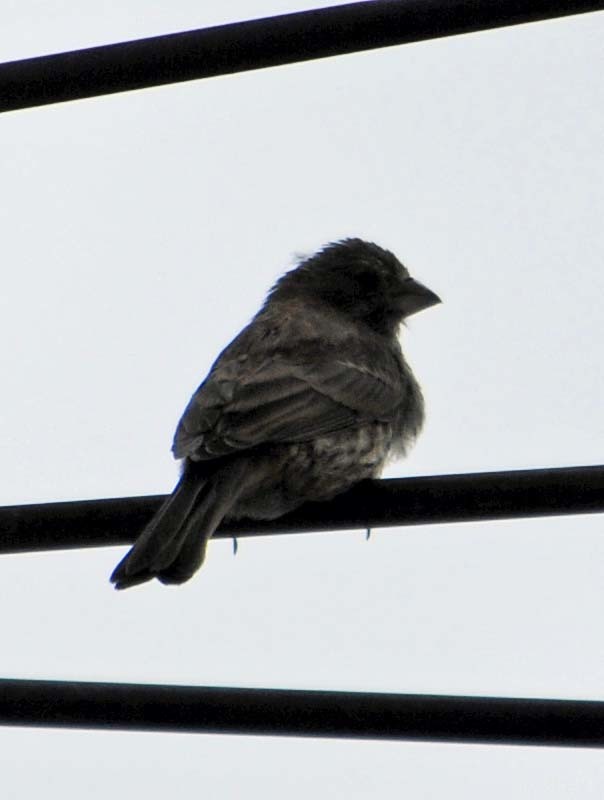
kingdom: Animalia
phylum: Chordata
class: Aves
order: Passeriformes
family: Fringillidae
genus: Haemorhous
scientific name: Haemorhous mexicanus
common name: House finch
